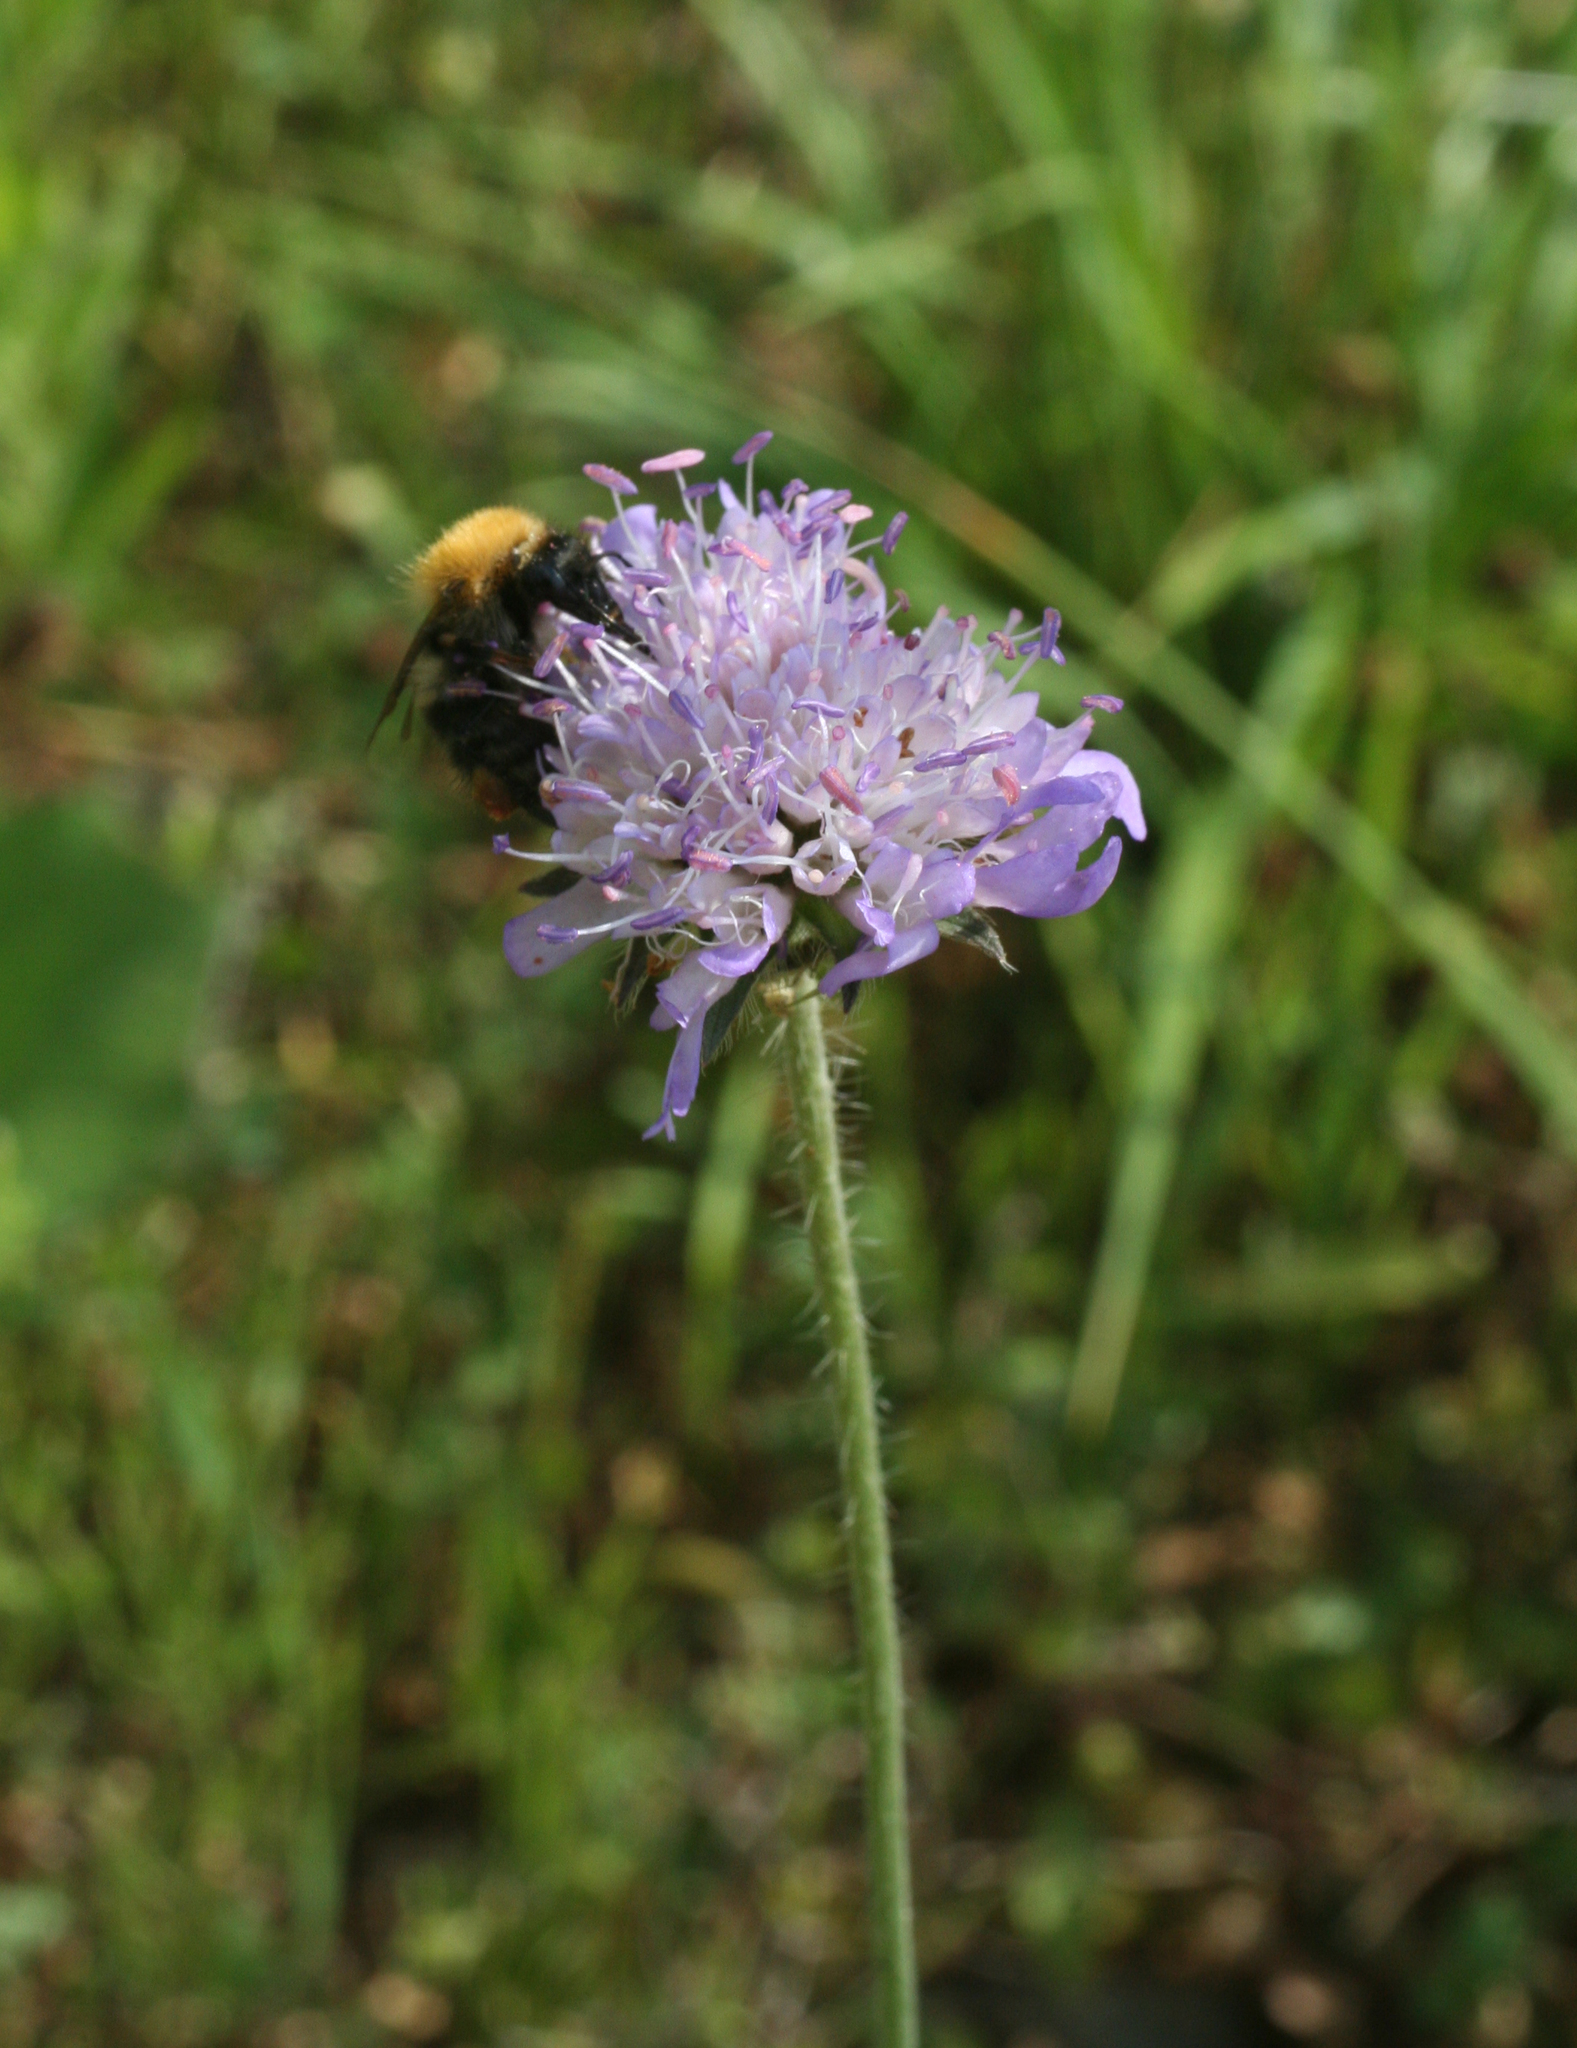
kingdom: Plantae
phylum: Tracheophyta
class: Magnoliopsida
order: Dipsacales
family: Caprifoliaceae
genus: Knautia
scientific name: Knautia arvensis
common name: Field scabiosa
